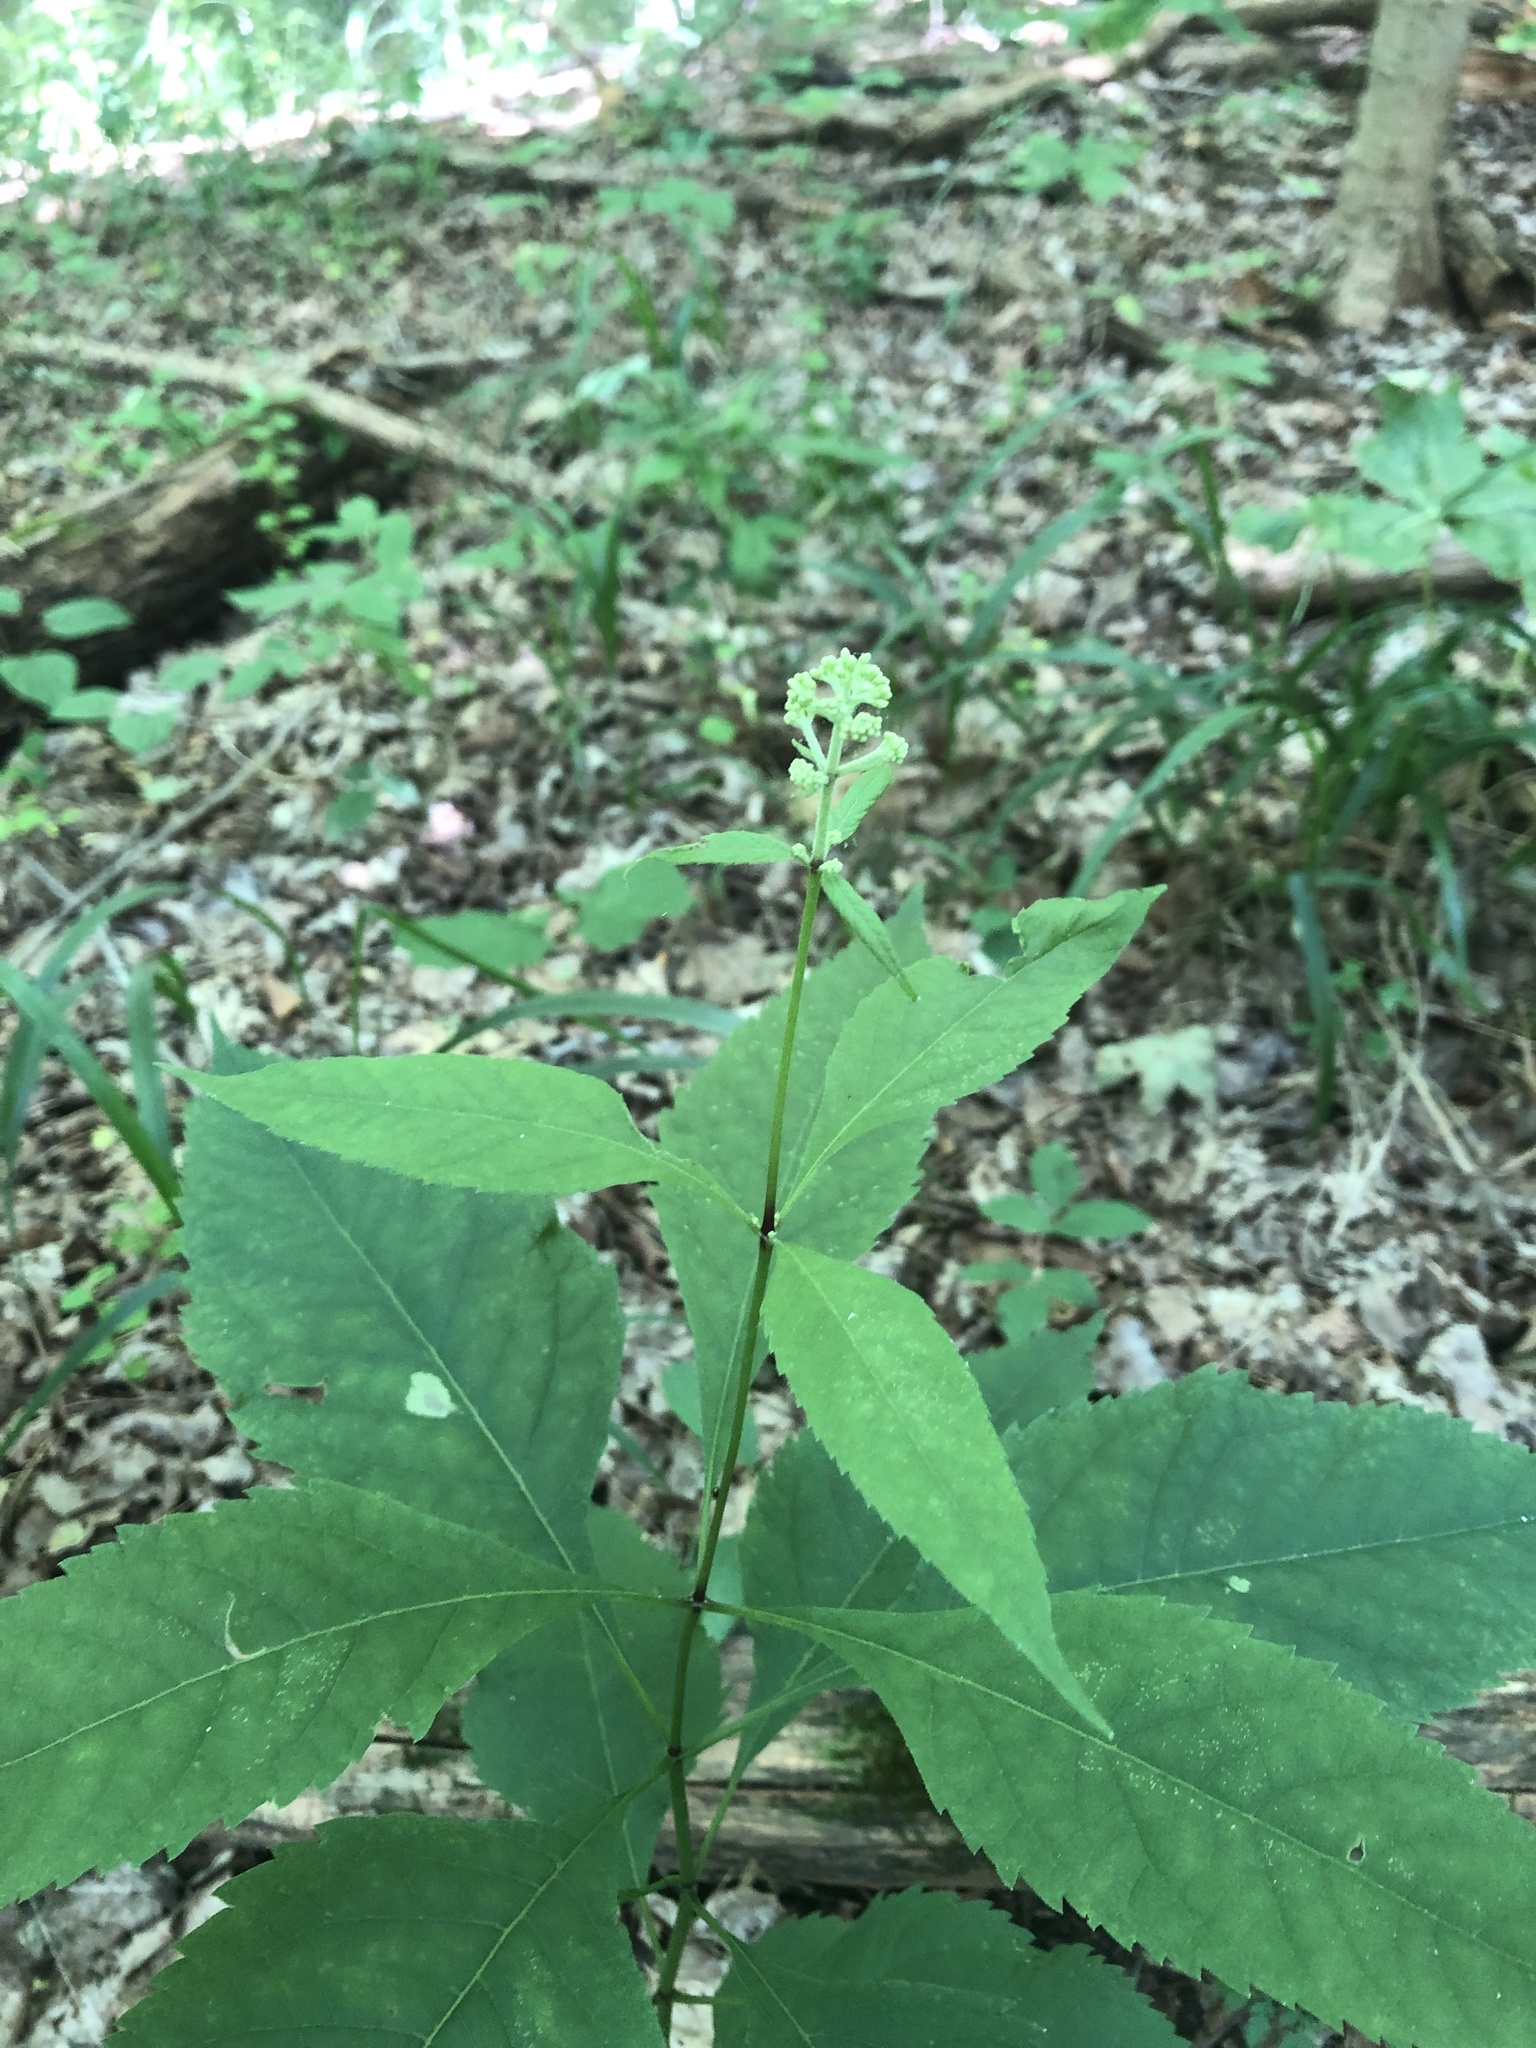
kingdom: Plantae
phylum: Tracheophyta
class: Magnoliopsida
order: Asterales
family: Asteraceae
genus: Eutrochium
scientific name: Eutrochium purpureum
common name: Gravelroot
